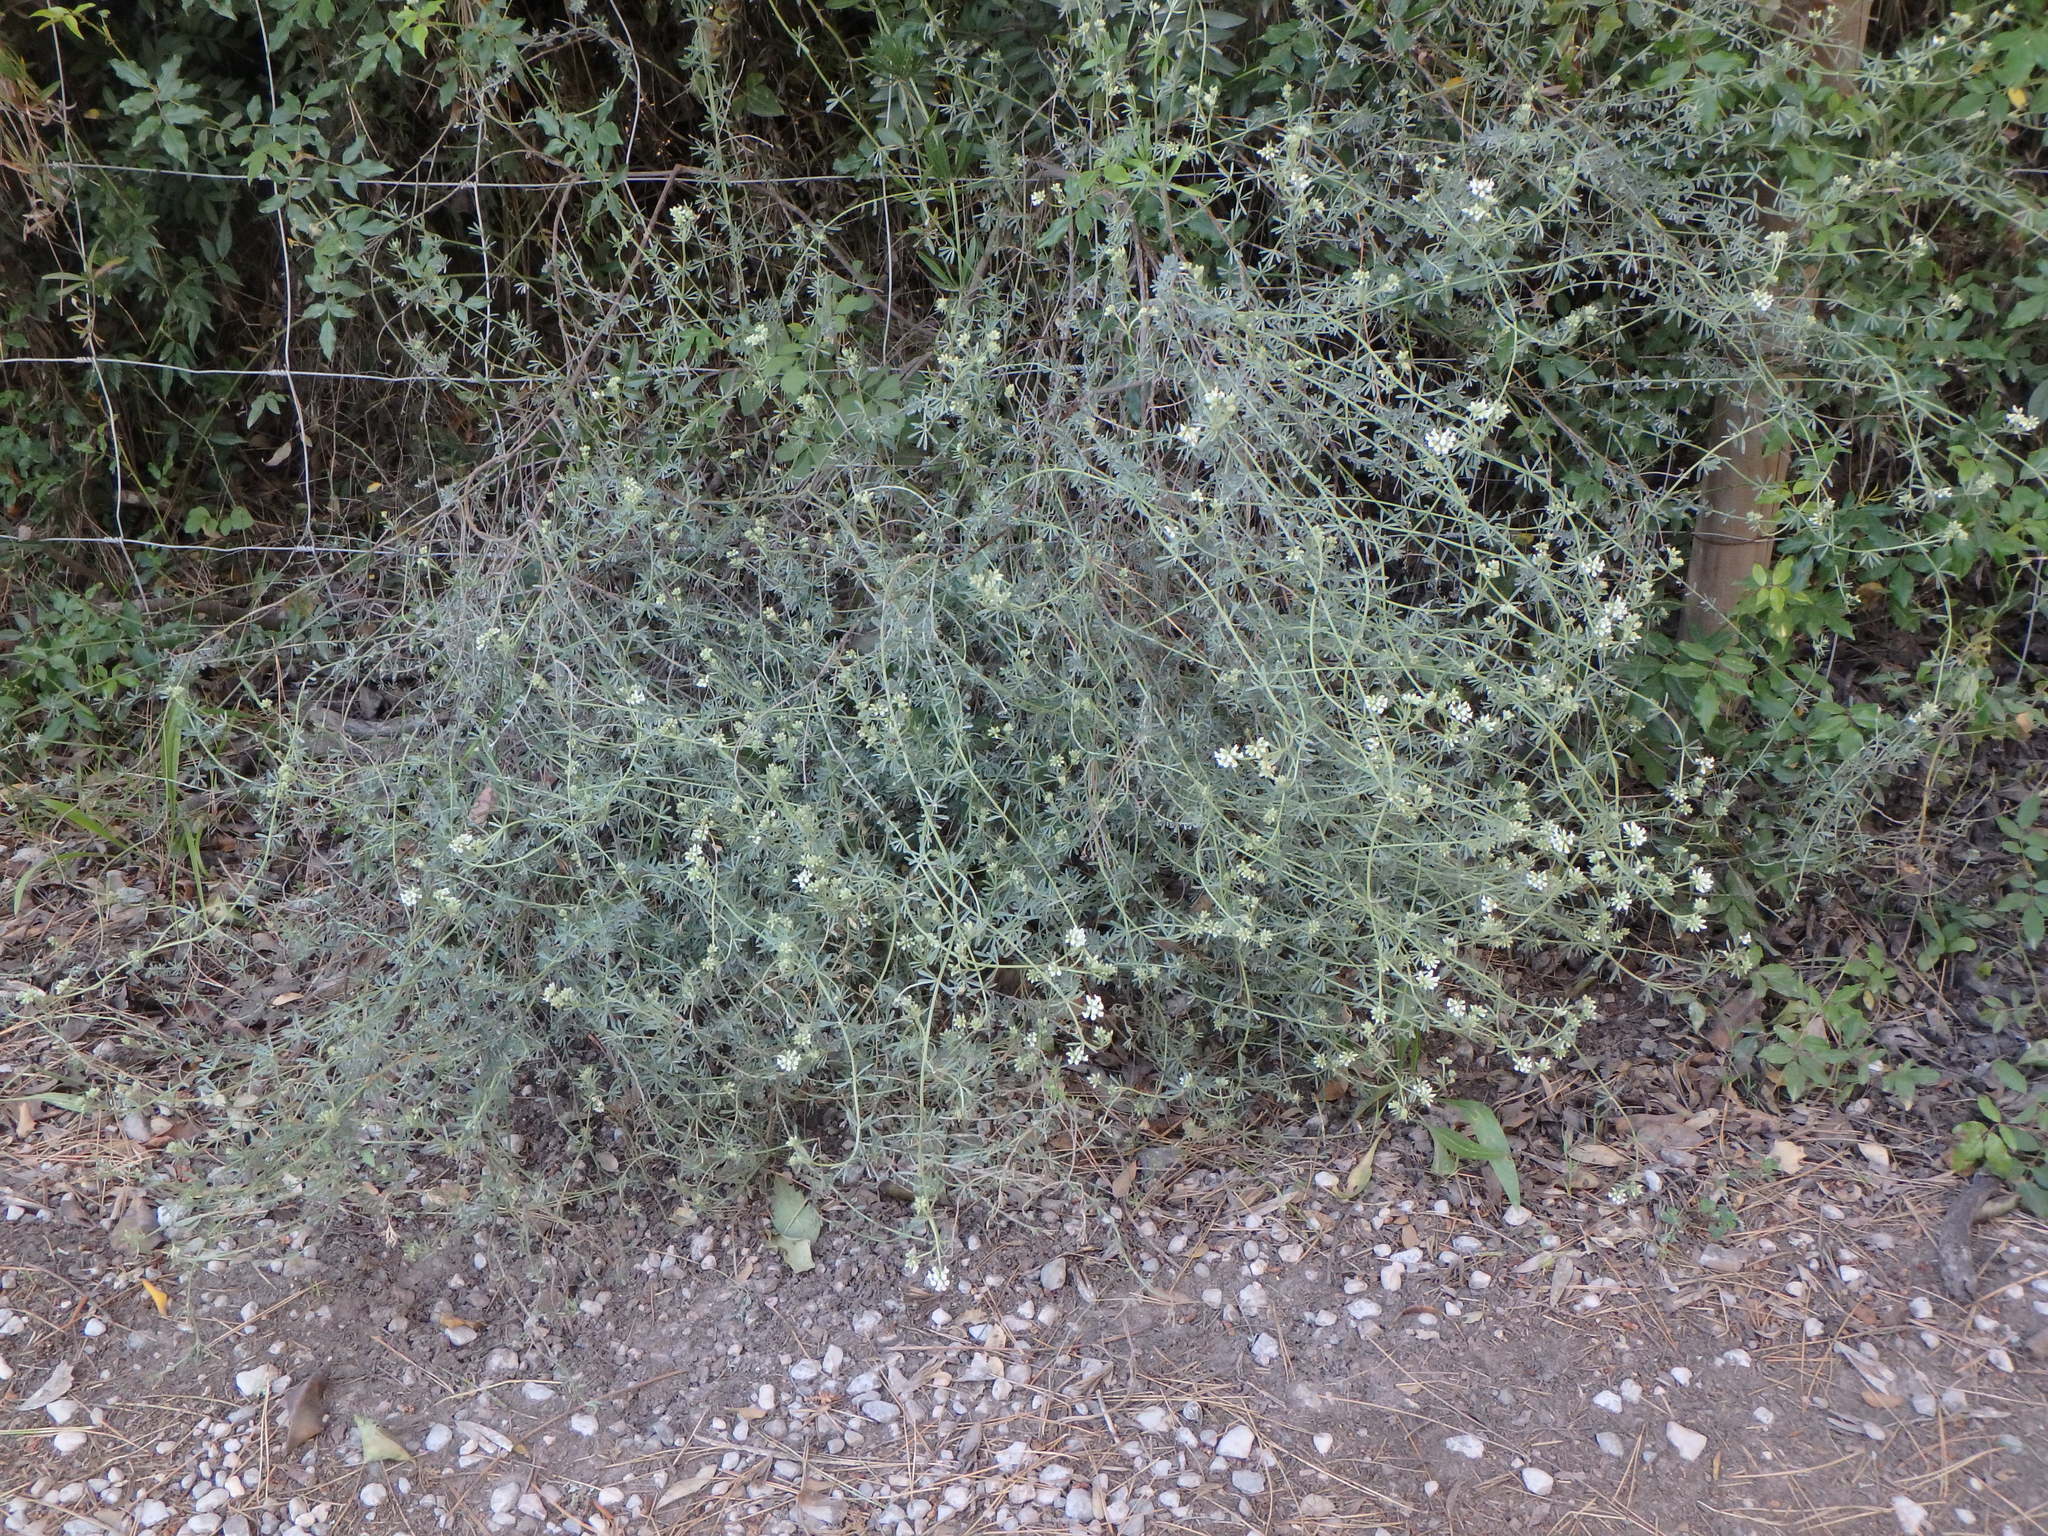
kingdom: Plantae
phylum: Tracheophyta
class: Magnoliopsida
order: Fabales
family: Fabaceae
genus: Lotus
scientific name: Lotus dorycnium
